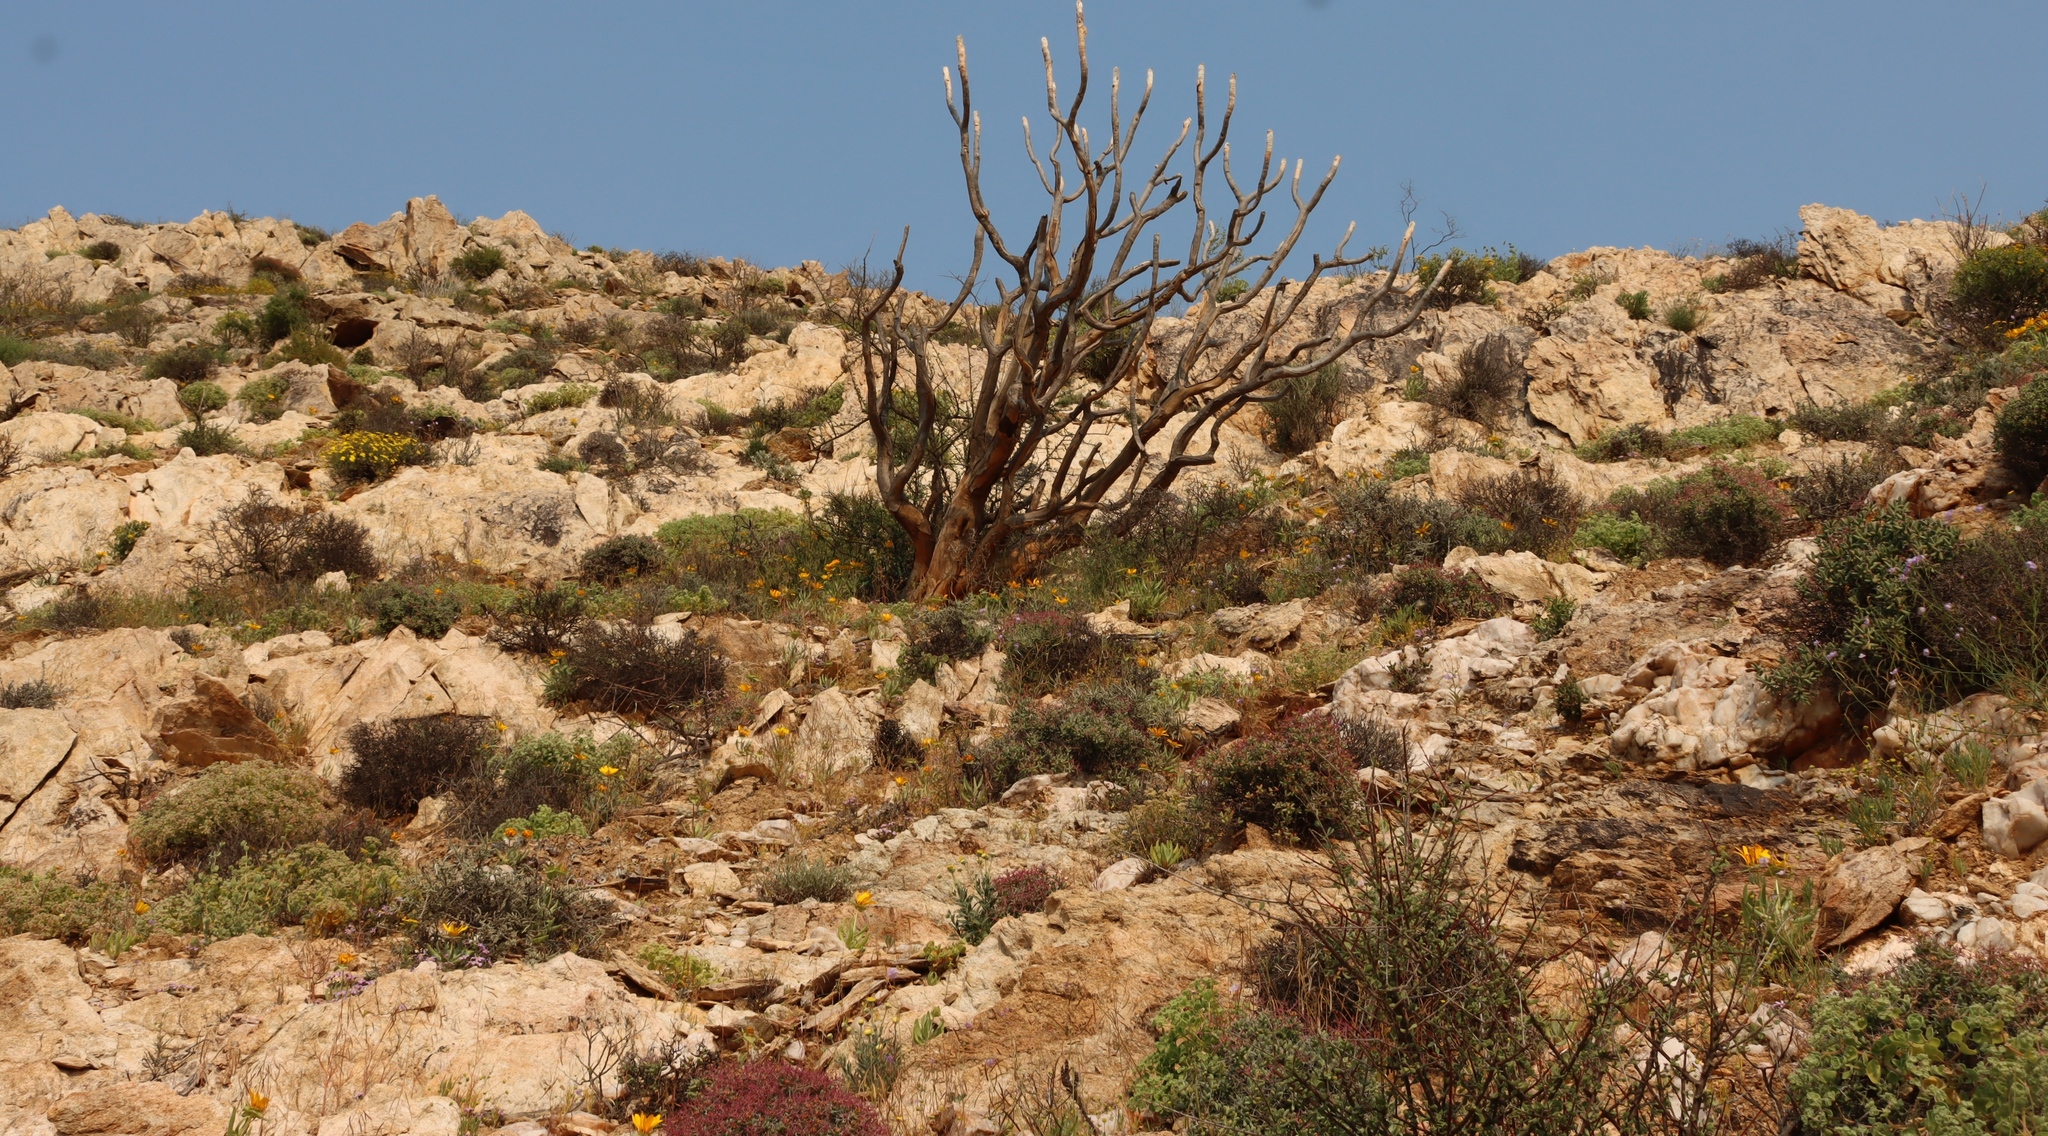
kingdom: Plantae
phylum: Tracheophyta
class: Liliopsida
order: Asparagales
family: Asphodelaceae
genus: Aloidendron
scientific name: Aloidendron ramosissimum
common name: Bush quiver tree
